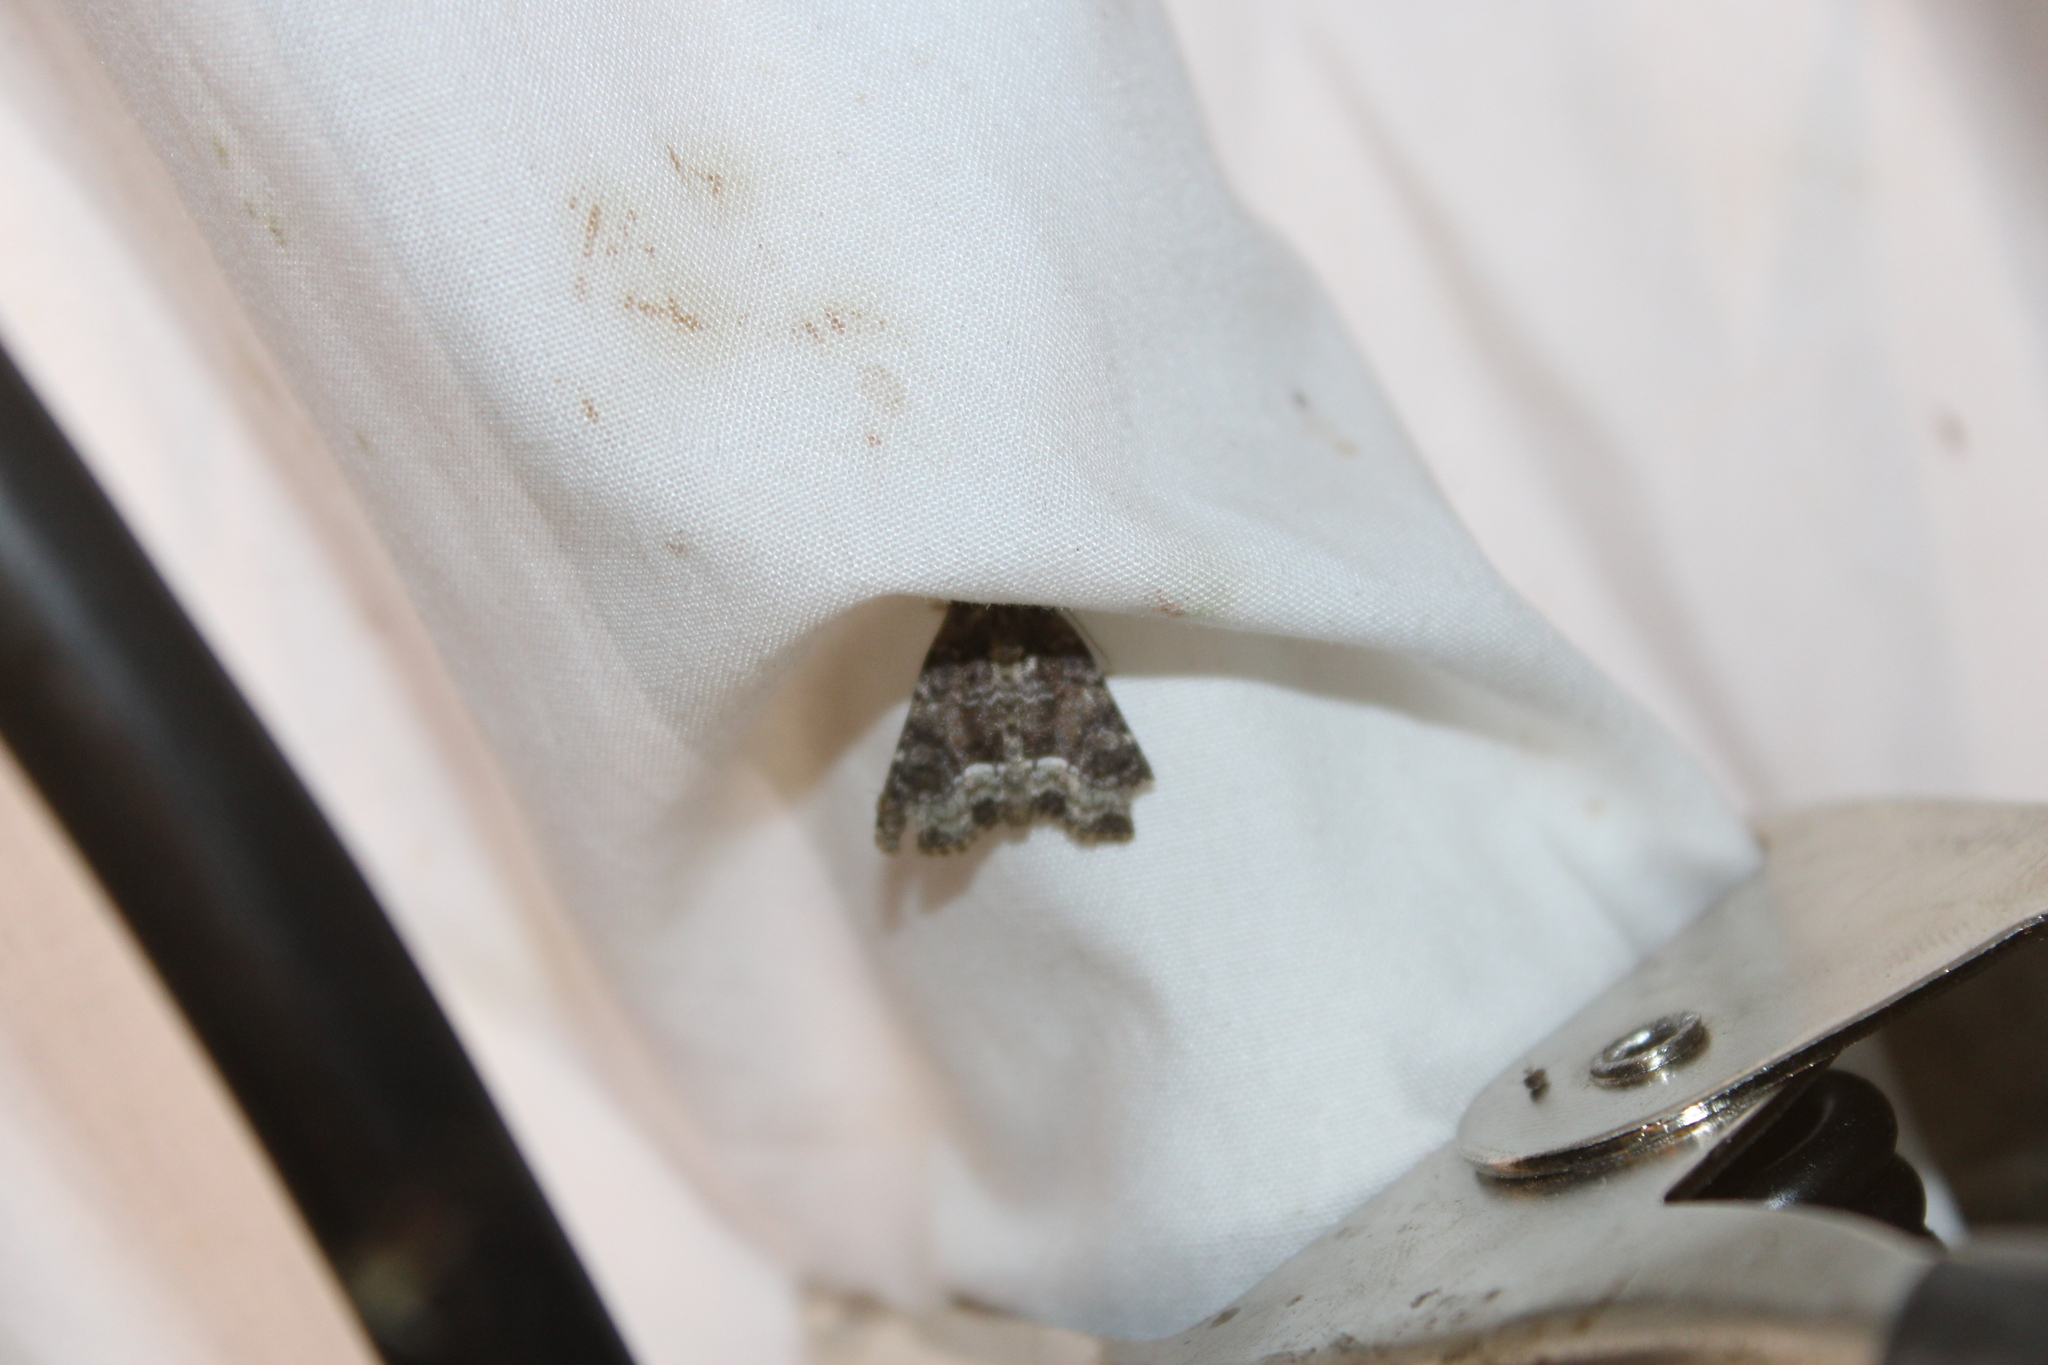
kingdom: Animalia
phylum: Arthropoda
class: Insecta
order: Lepidoptera
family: Noctuidae
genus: Oligia
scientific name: Oligia strigilis
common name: Marbled minor
